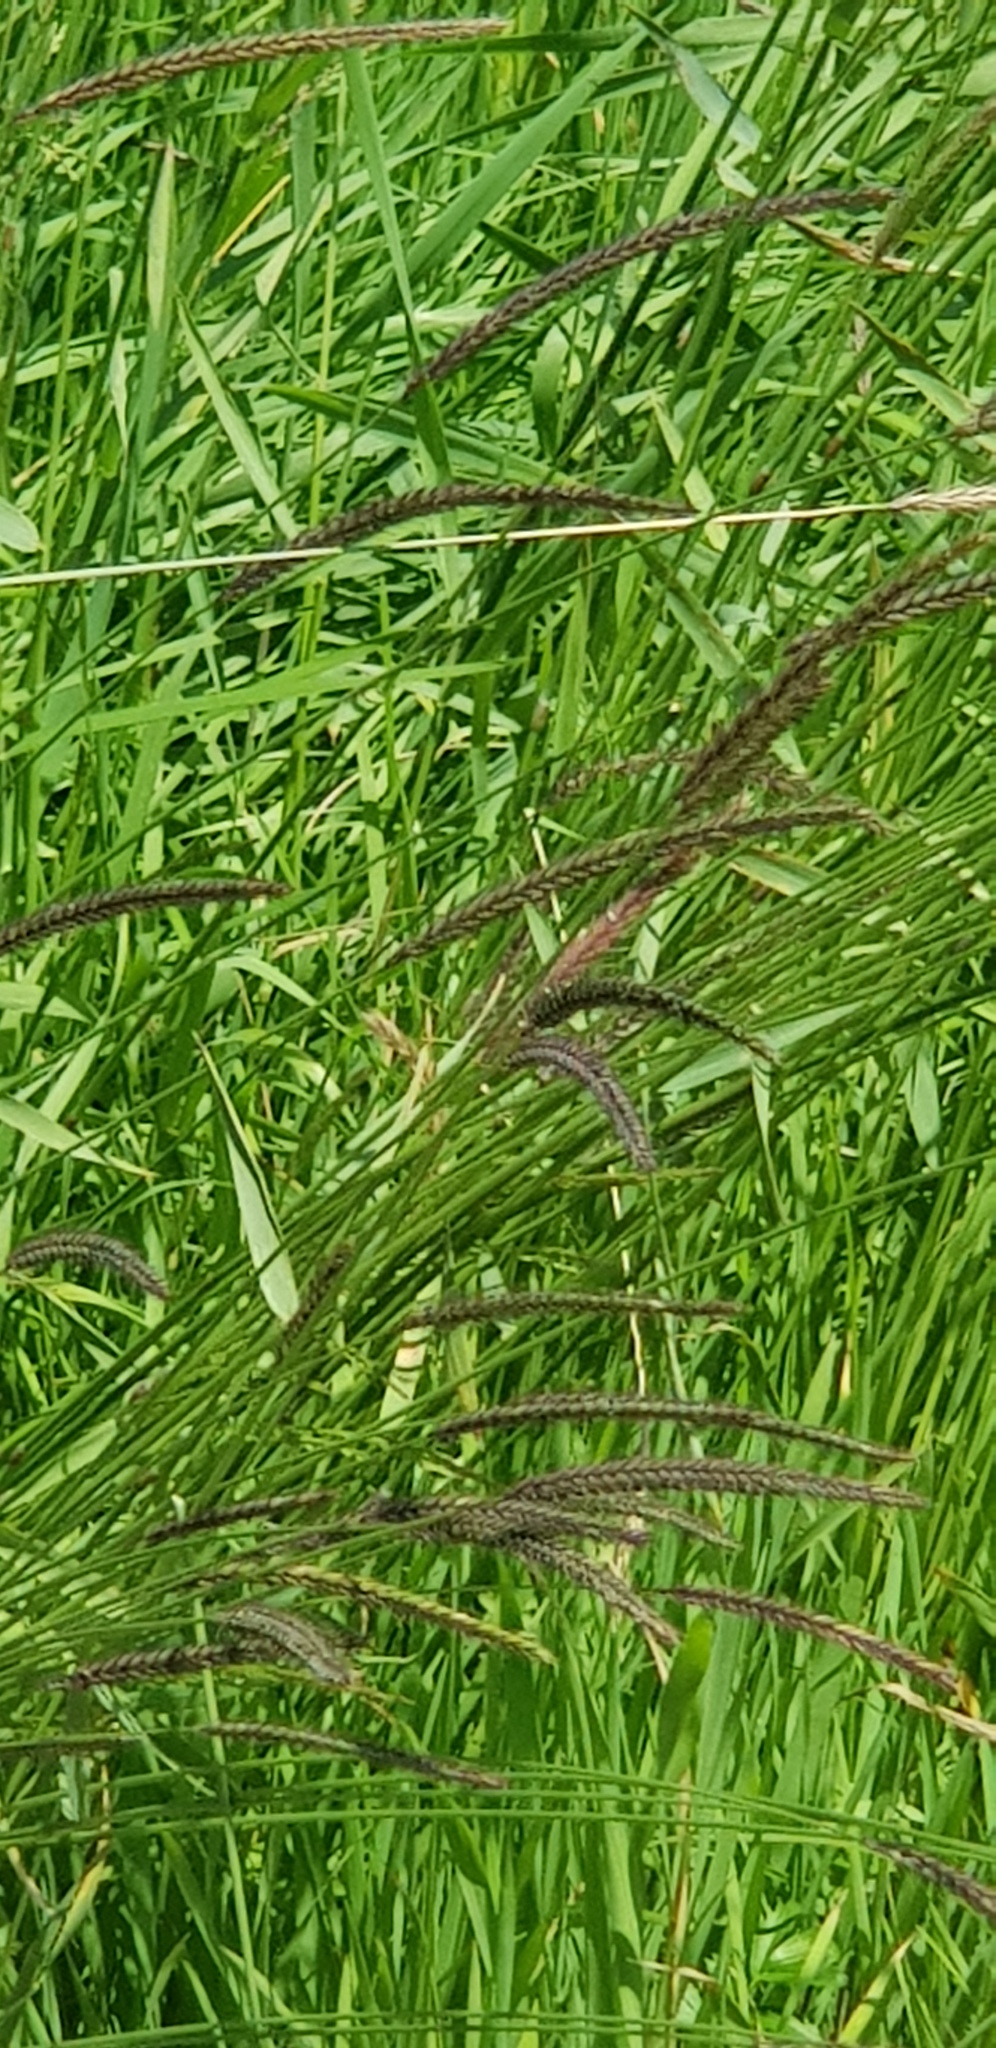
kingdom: Plantae
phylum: Tracheophyta
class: Liliopsida
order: Poales
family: Poaceae
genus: Hordeum
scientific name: Hordeum brevisubulatum
